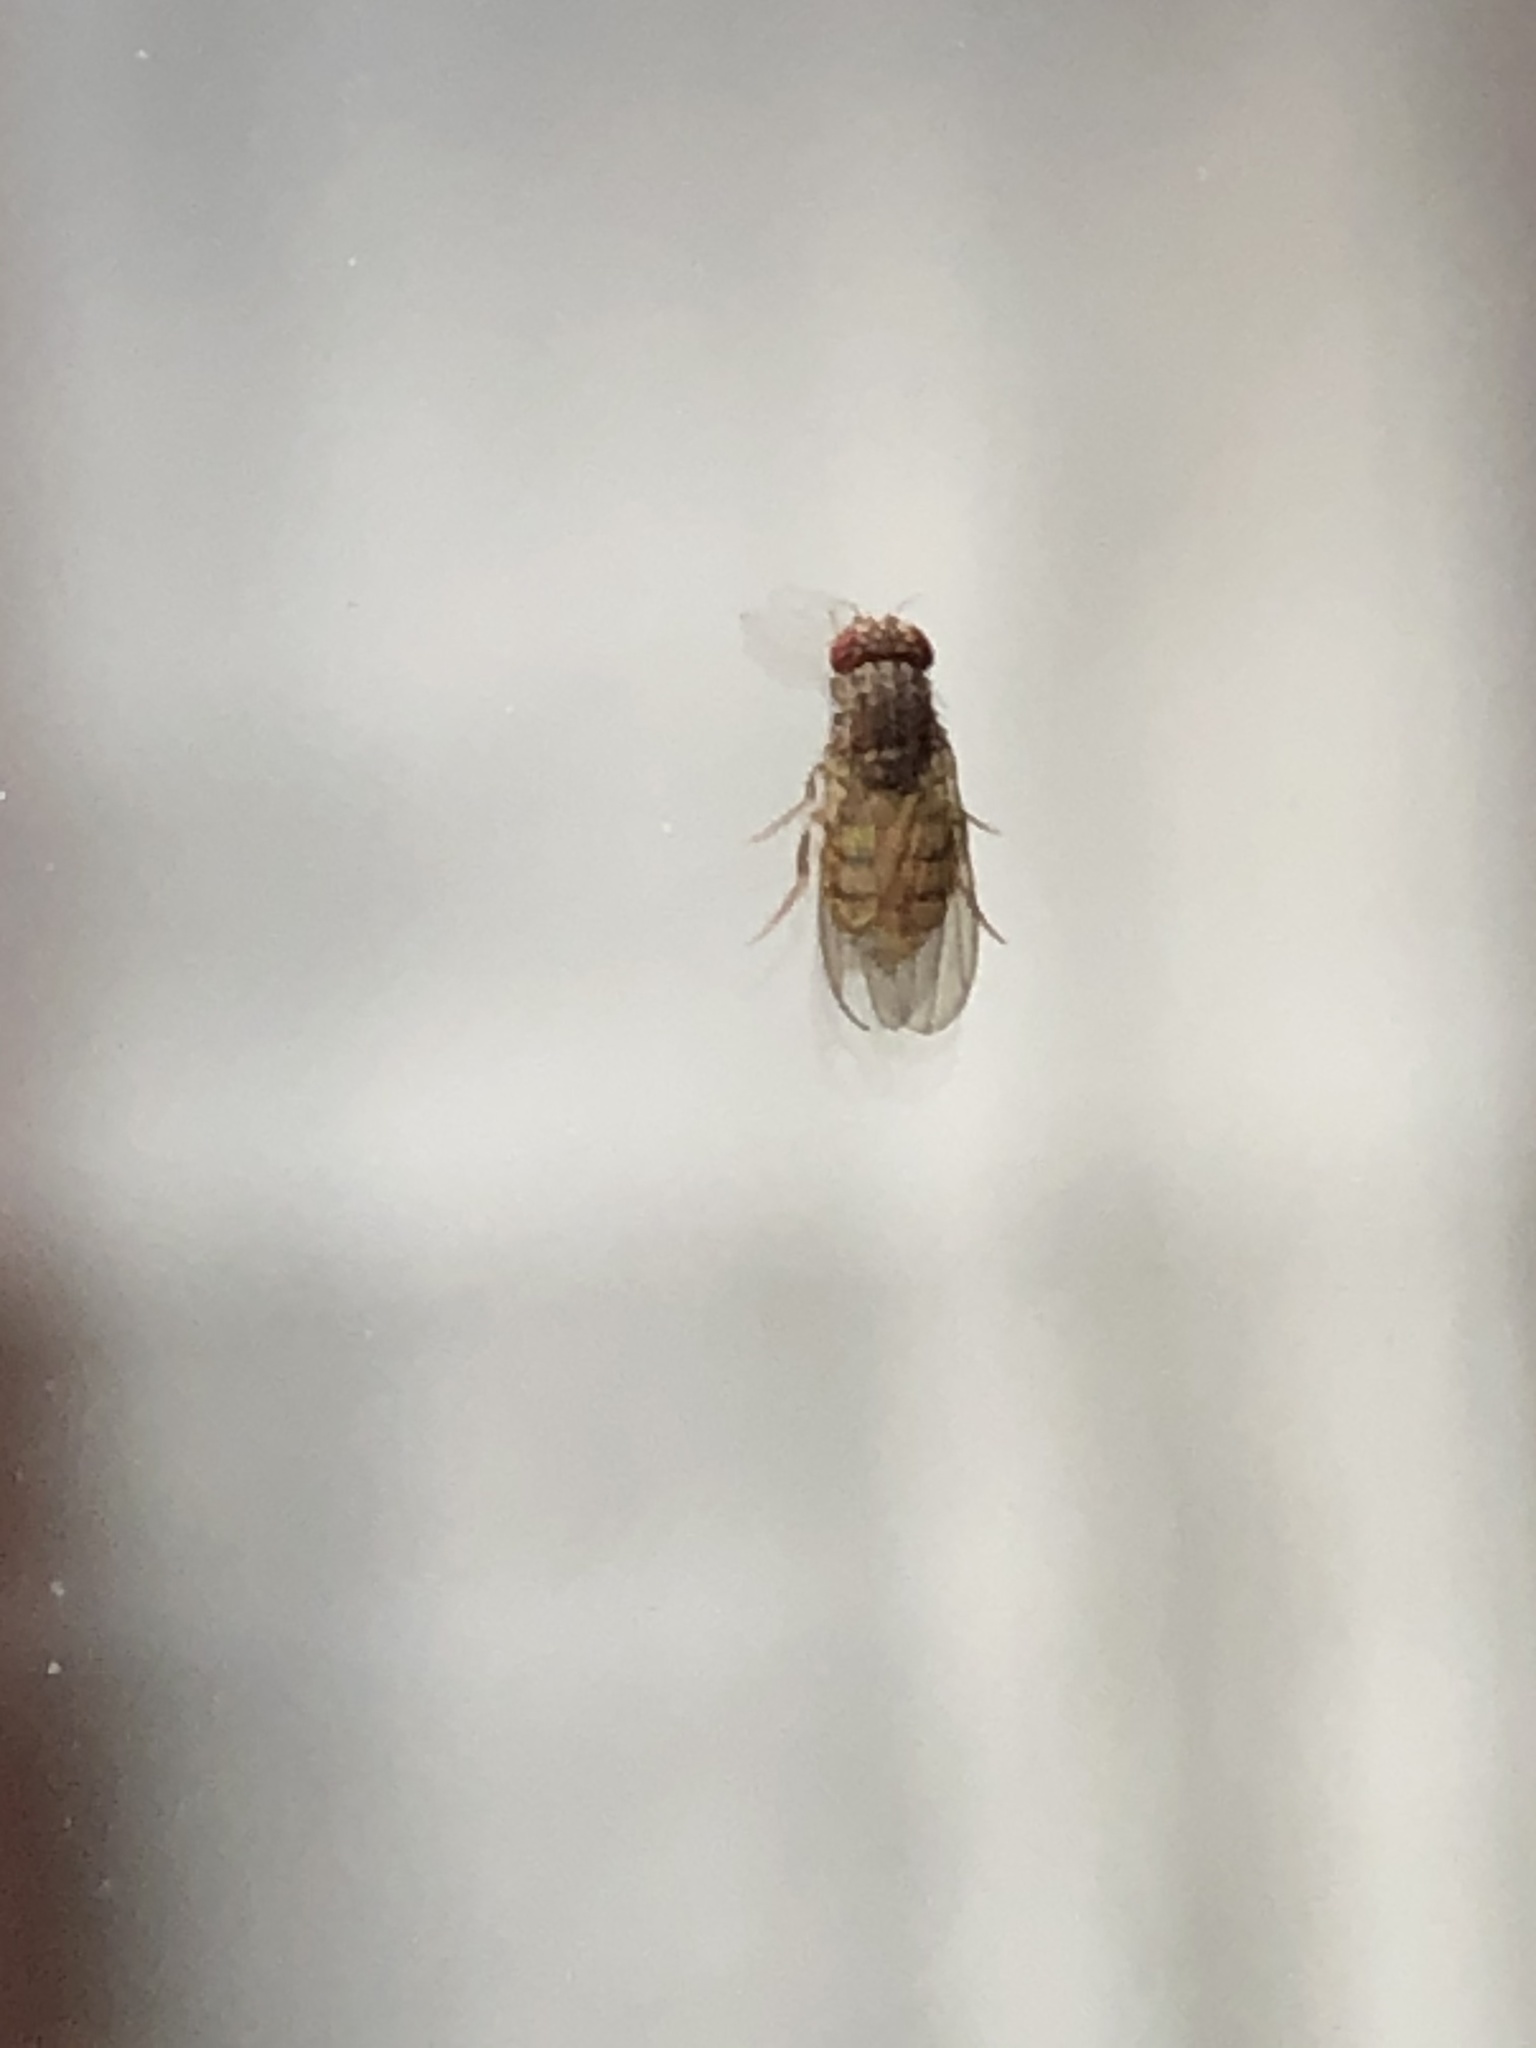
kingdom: Animalia
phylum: Arthropoda
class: Insecta
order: Diptera
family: Drosophilidae
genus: Drosophila
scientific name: Drosophila
